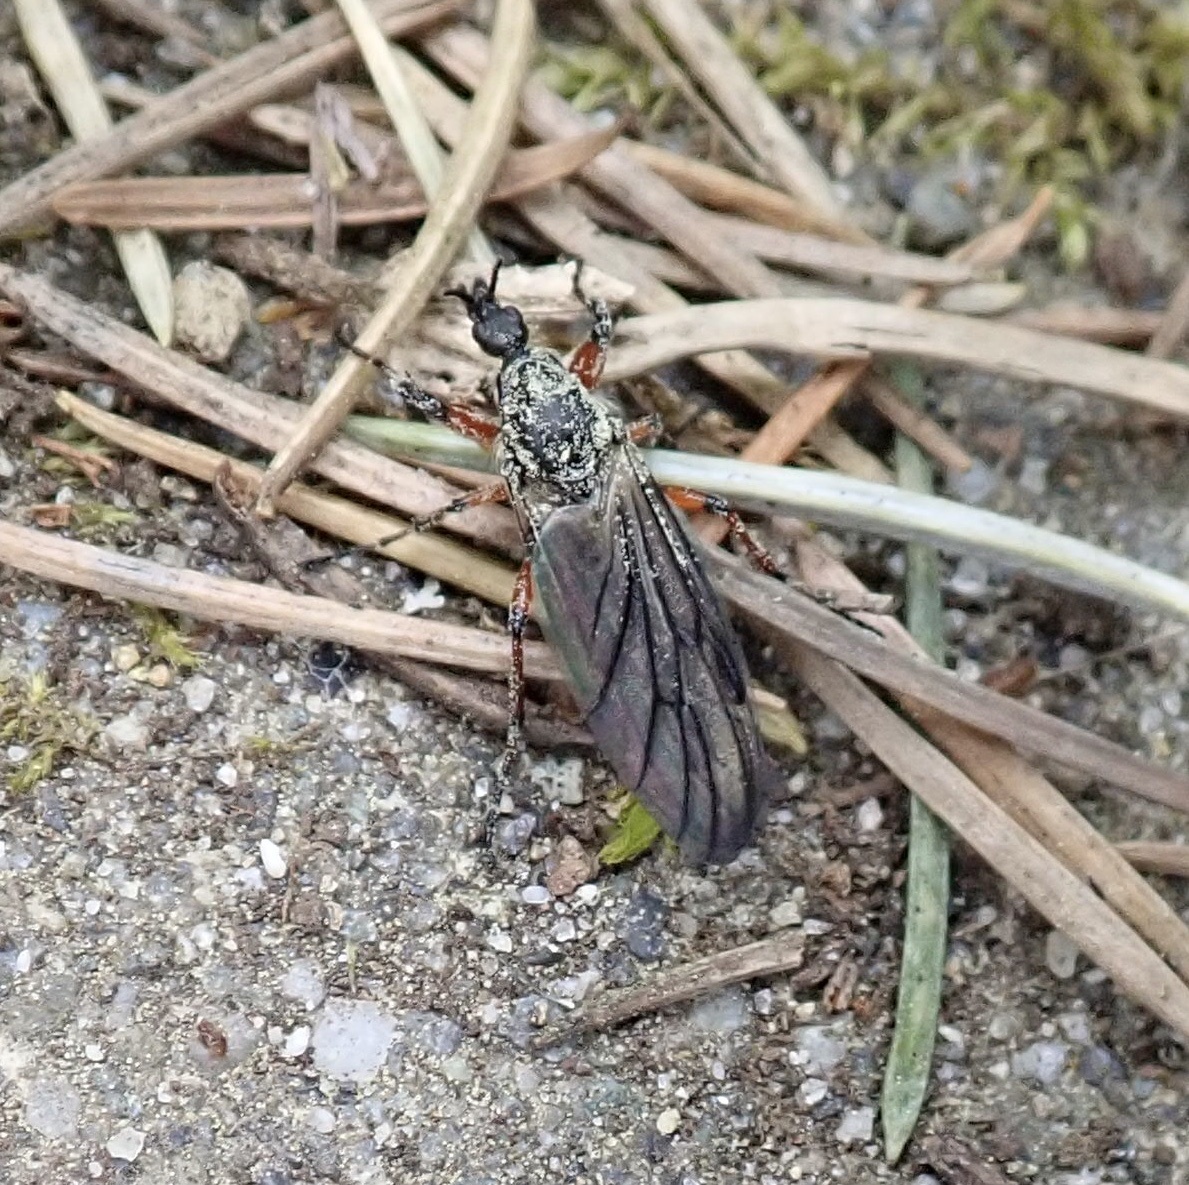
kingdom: Animalia
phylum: Arthropoda
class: Insecta
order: Diptera
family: Bibionidae
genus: Bibio
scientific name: Bibio
